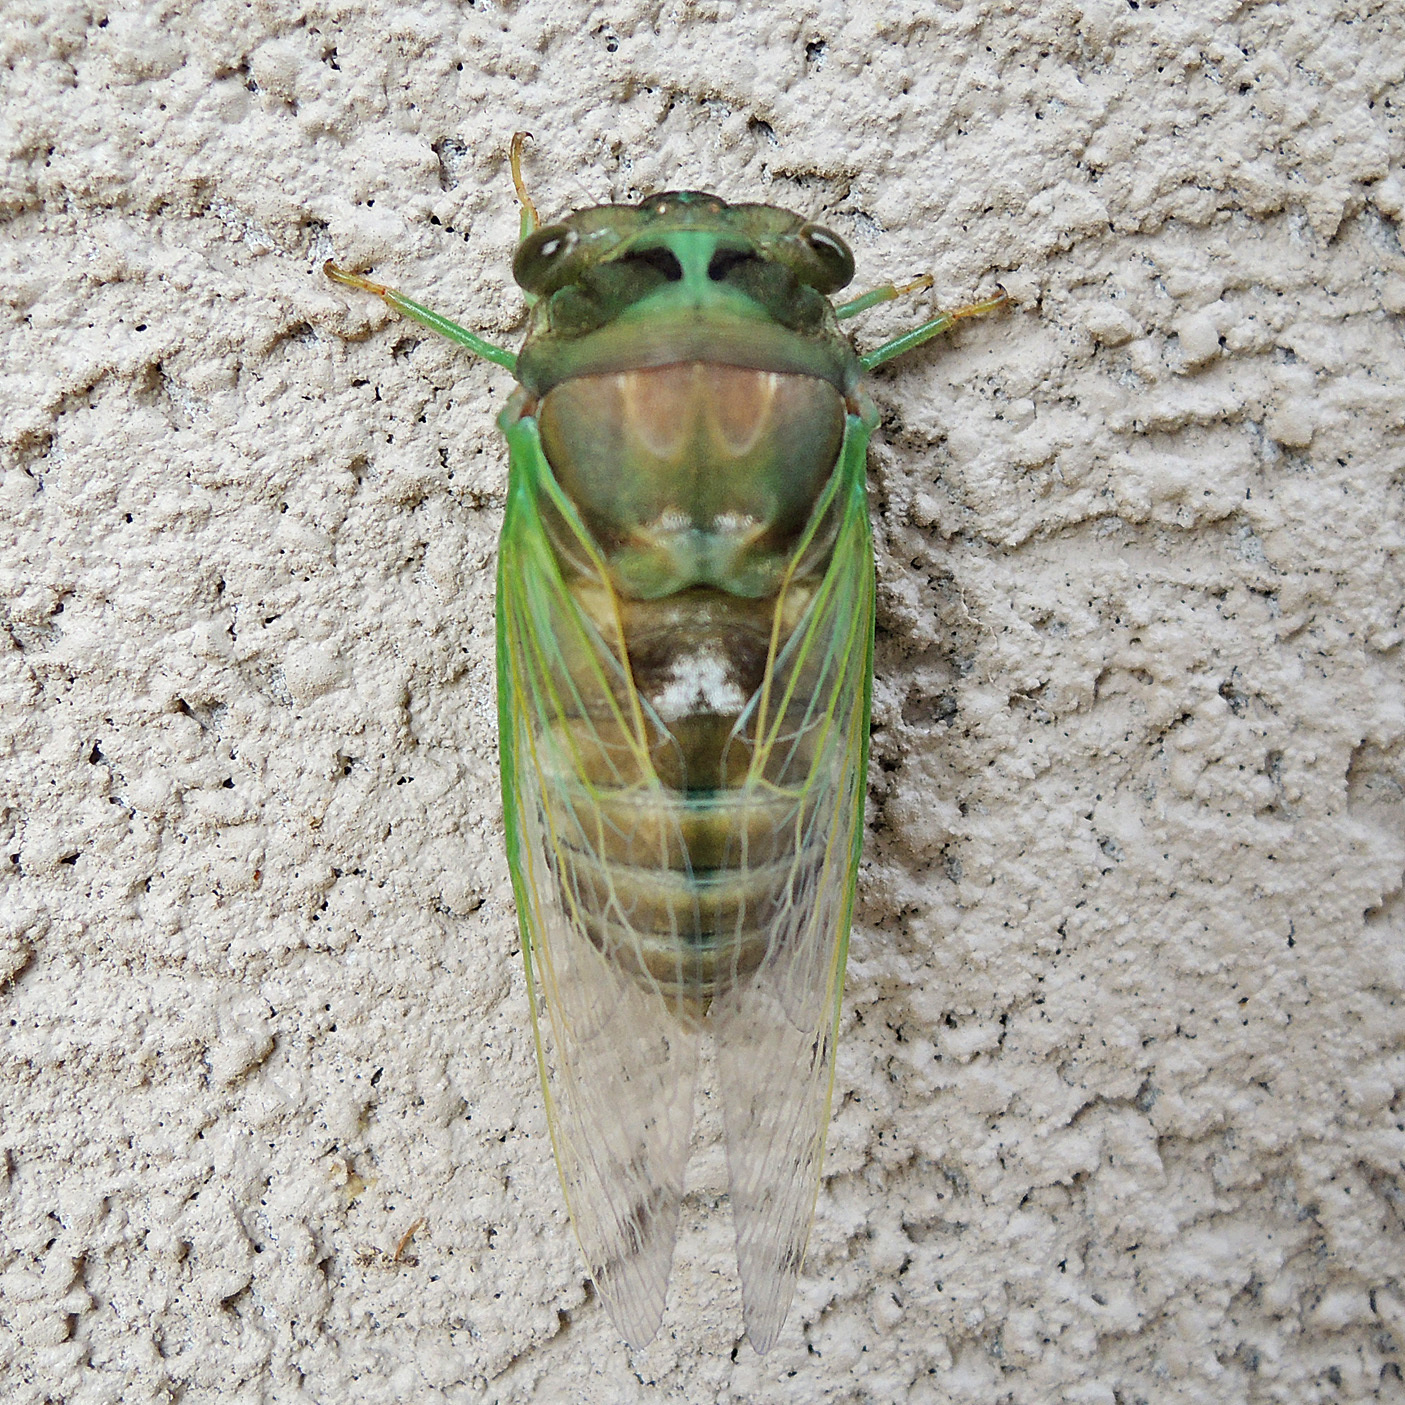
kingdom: Animalia
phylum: Arthropoda
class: Insecta
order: Hemiptera
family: Cicadidae
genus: Neotibicen
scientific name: Neotibicen tibicen
